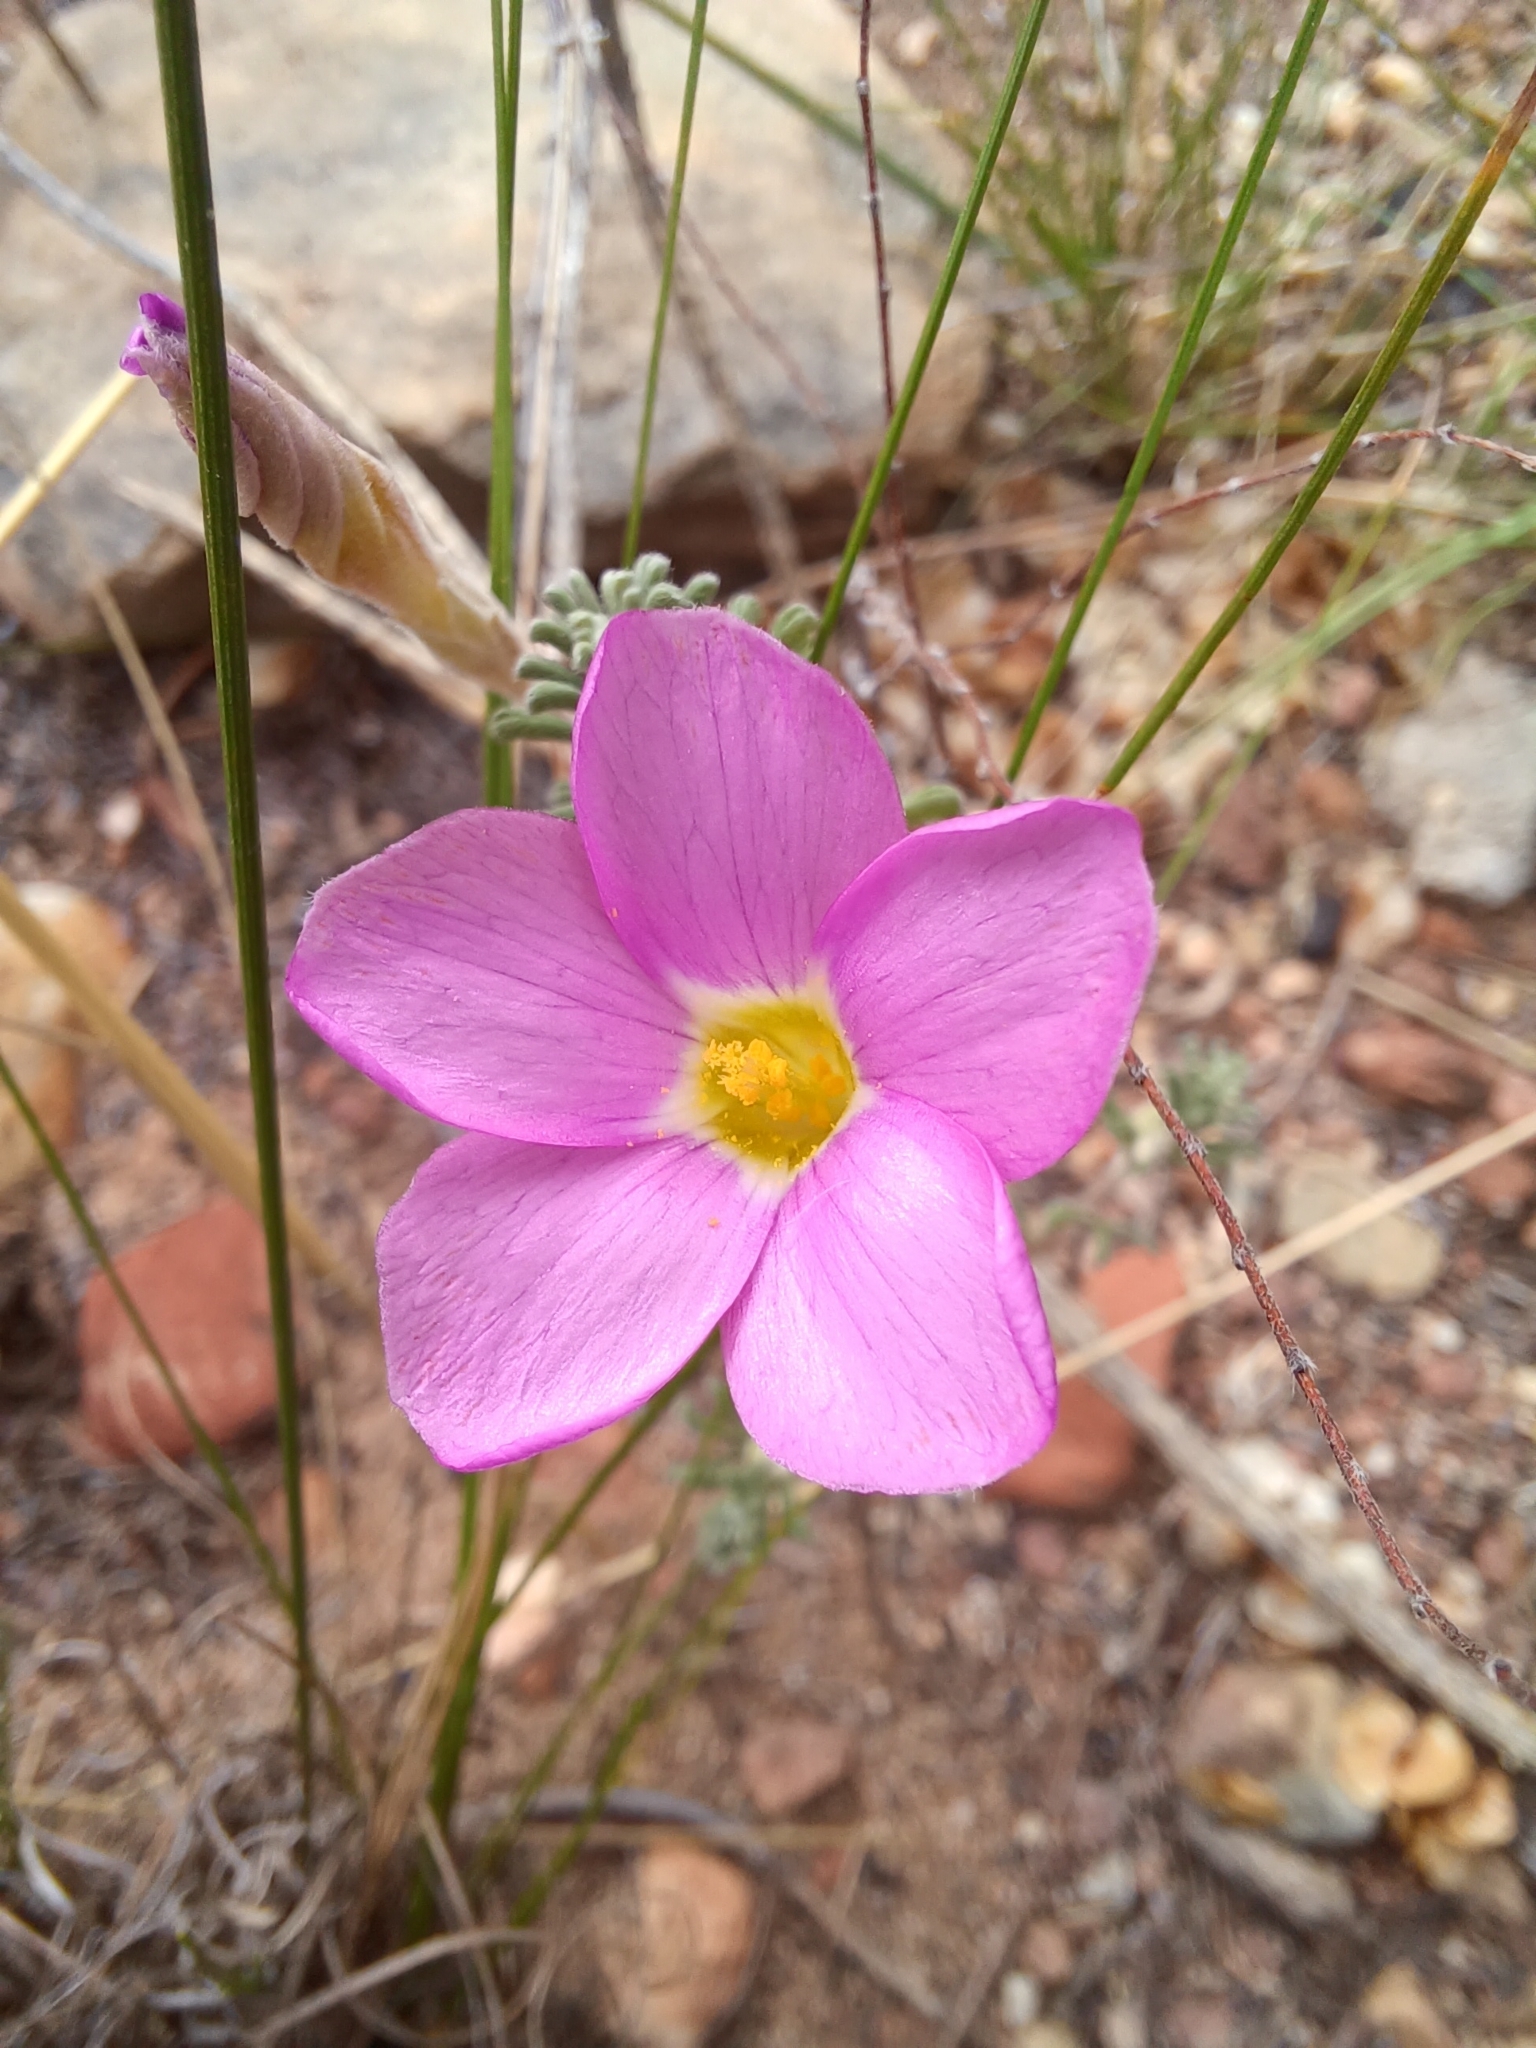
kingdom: Plantae
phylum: Tracheophyta
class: Magnoliopsida
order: Oxalidales
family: Oxalidaceae
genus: Oxalis
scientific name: Oxalis hirta
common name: Tropical woodsorrel
